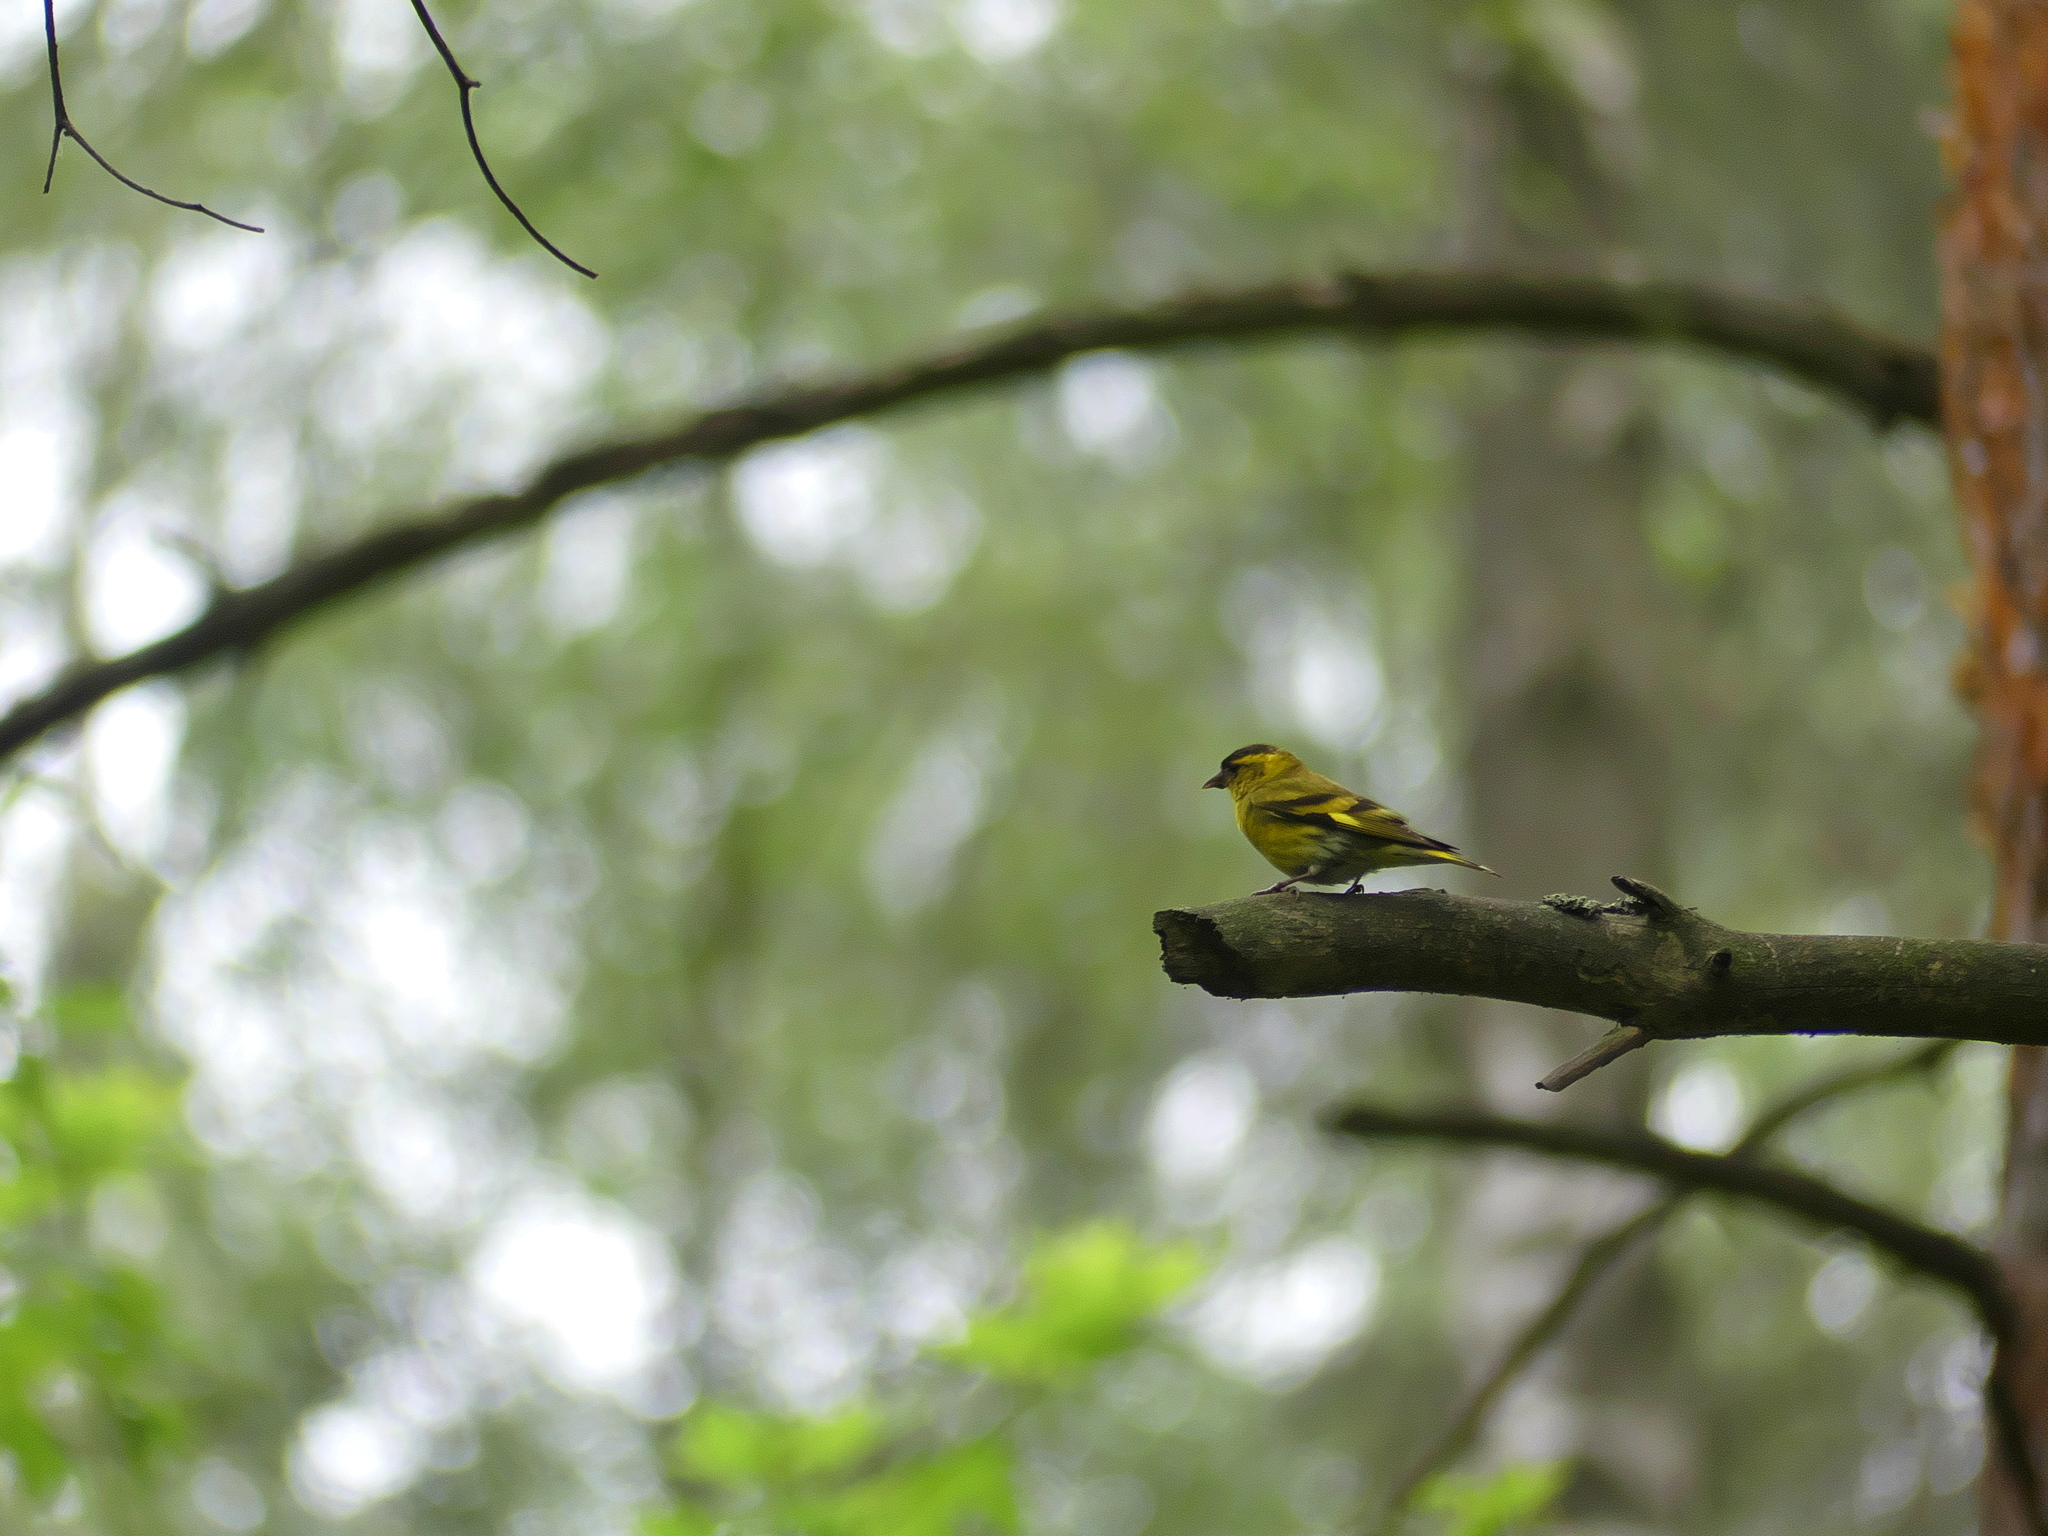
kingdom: Animalia
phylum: Chordata
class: Aves
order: Passeriformes
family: Fringillidae
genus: Spinus
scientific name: Spinus spinus
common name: Eurasian siskin
